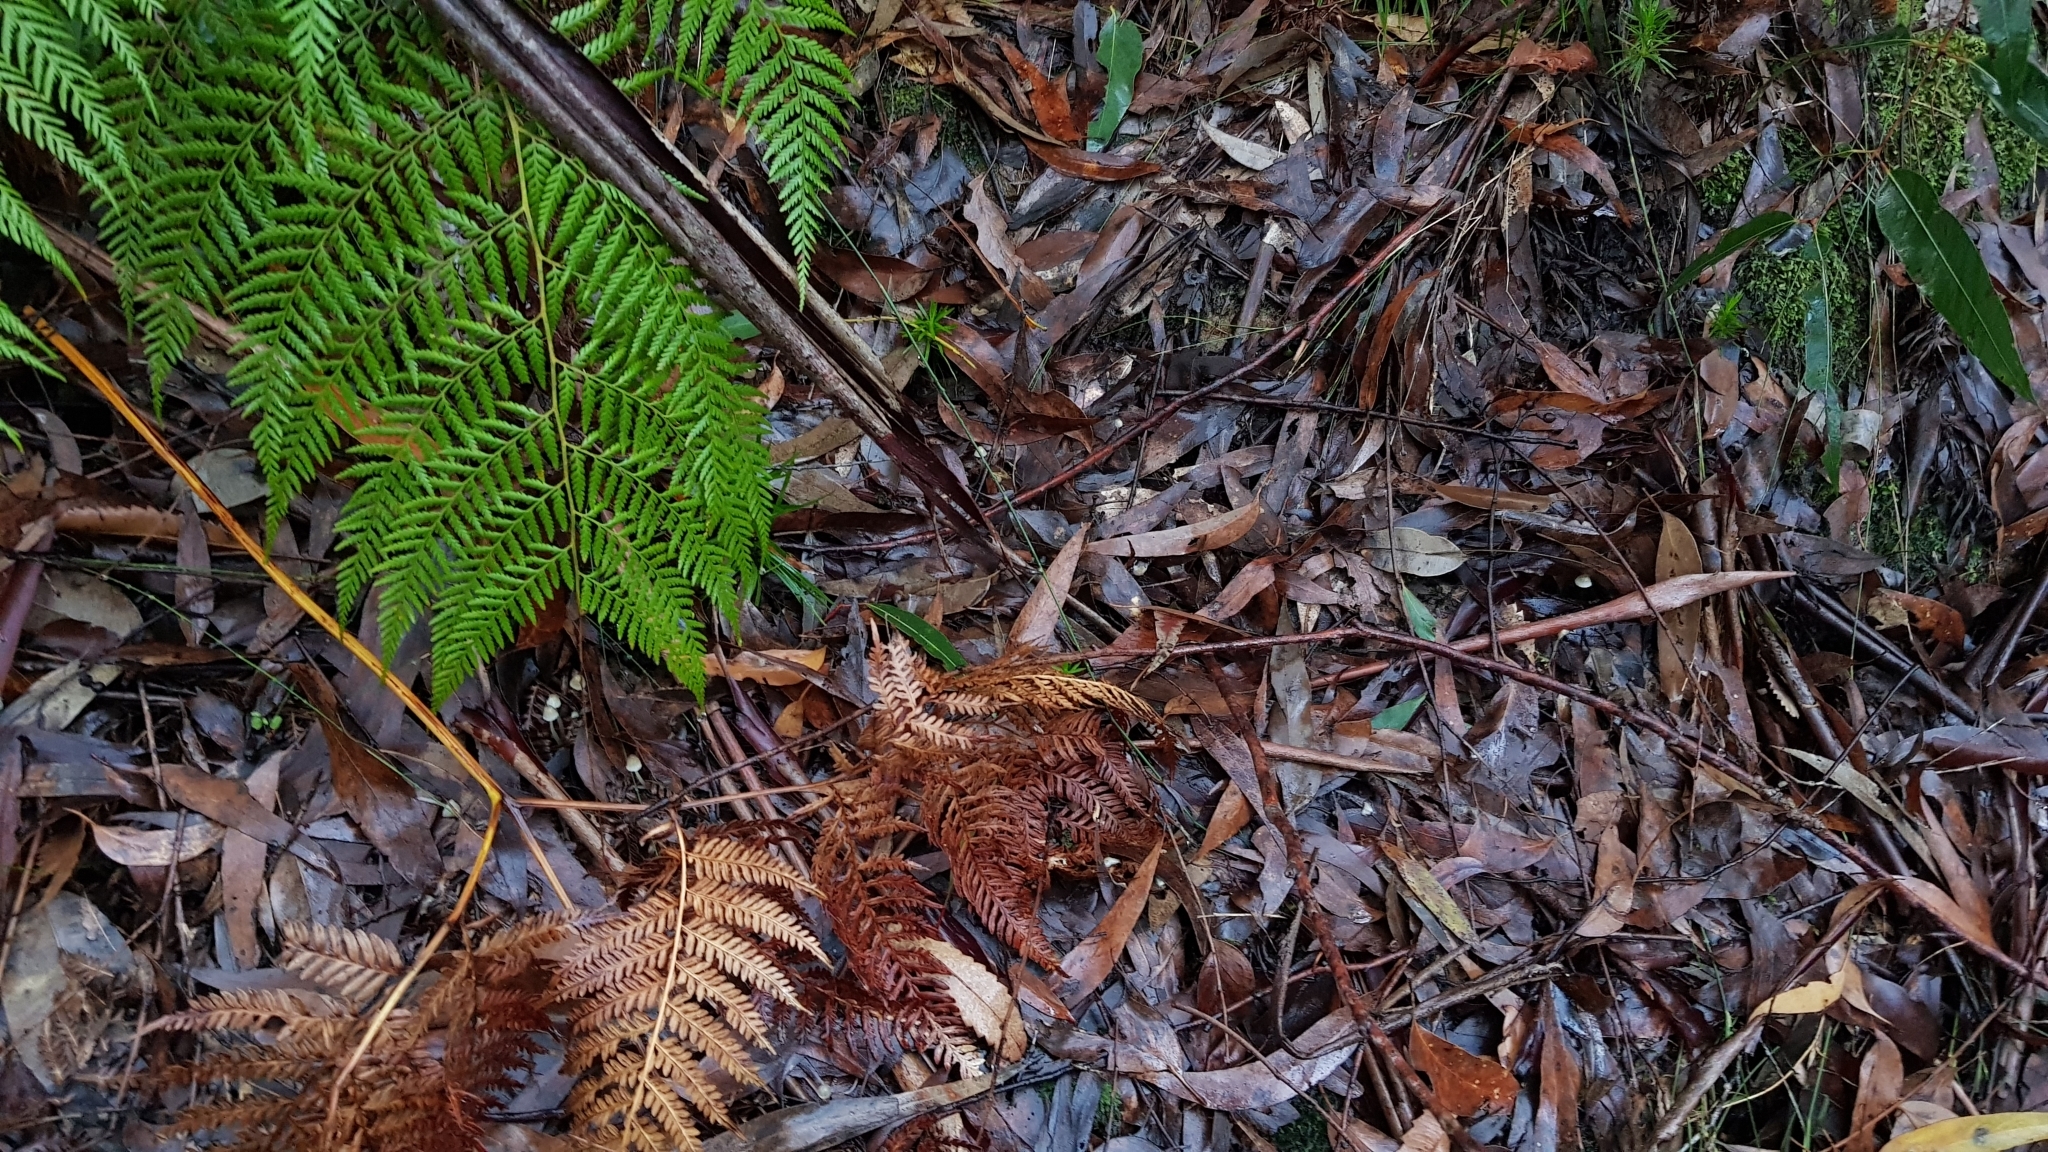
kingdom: Fungi
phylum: Basidiomycota
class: Agaricomycetes
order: Agaricales
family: Mycenaceae
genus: Mycena
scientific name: Mycena epipterygia
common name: Yellowleg bonnet
